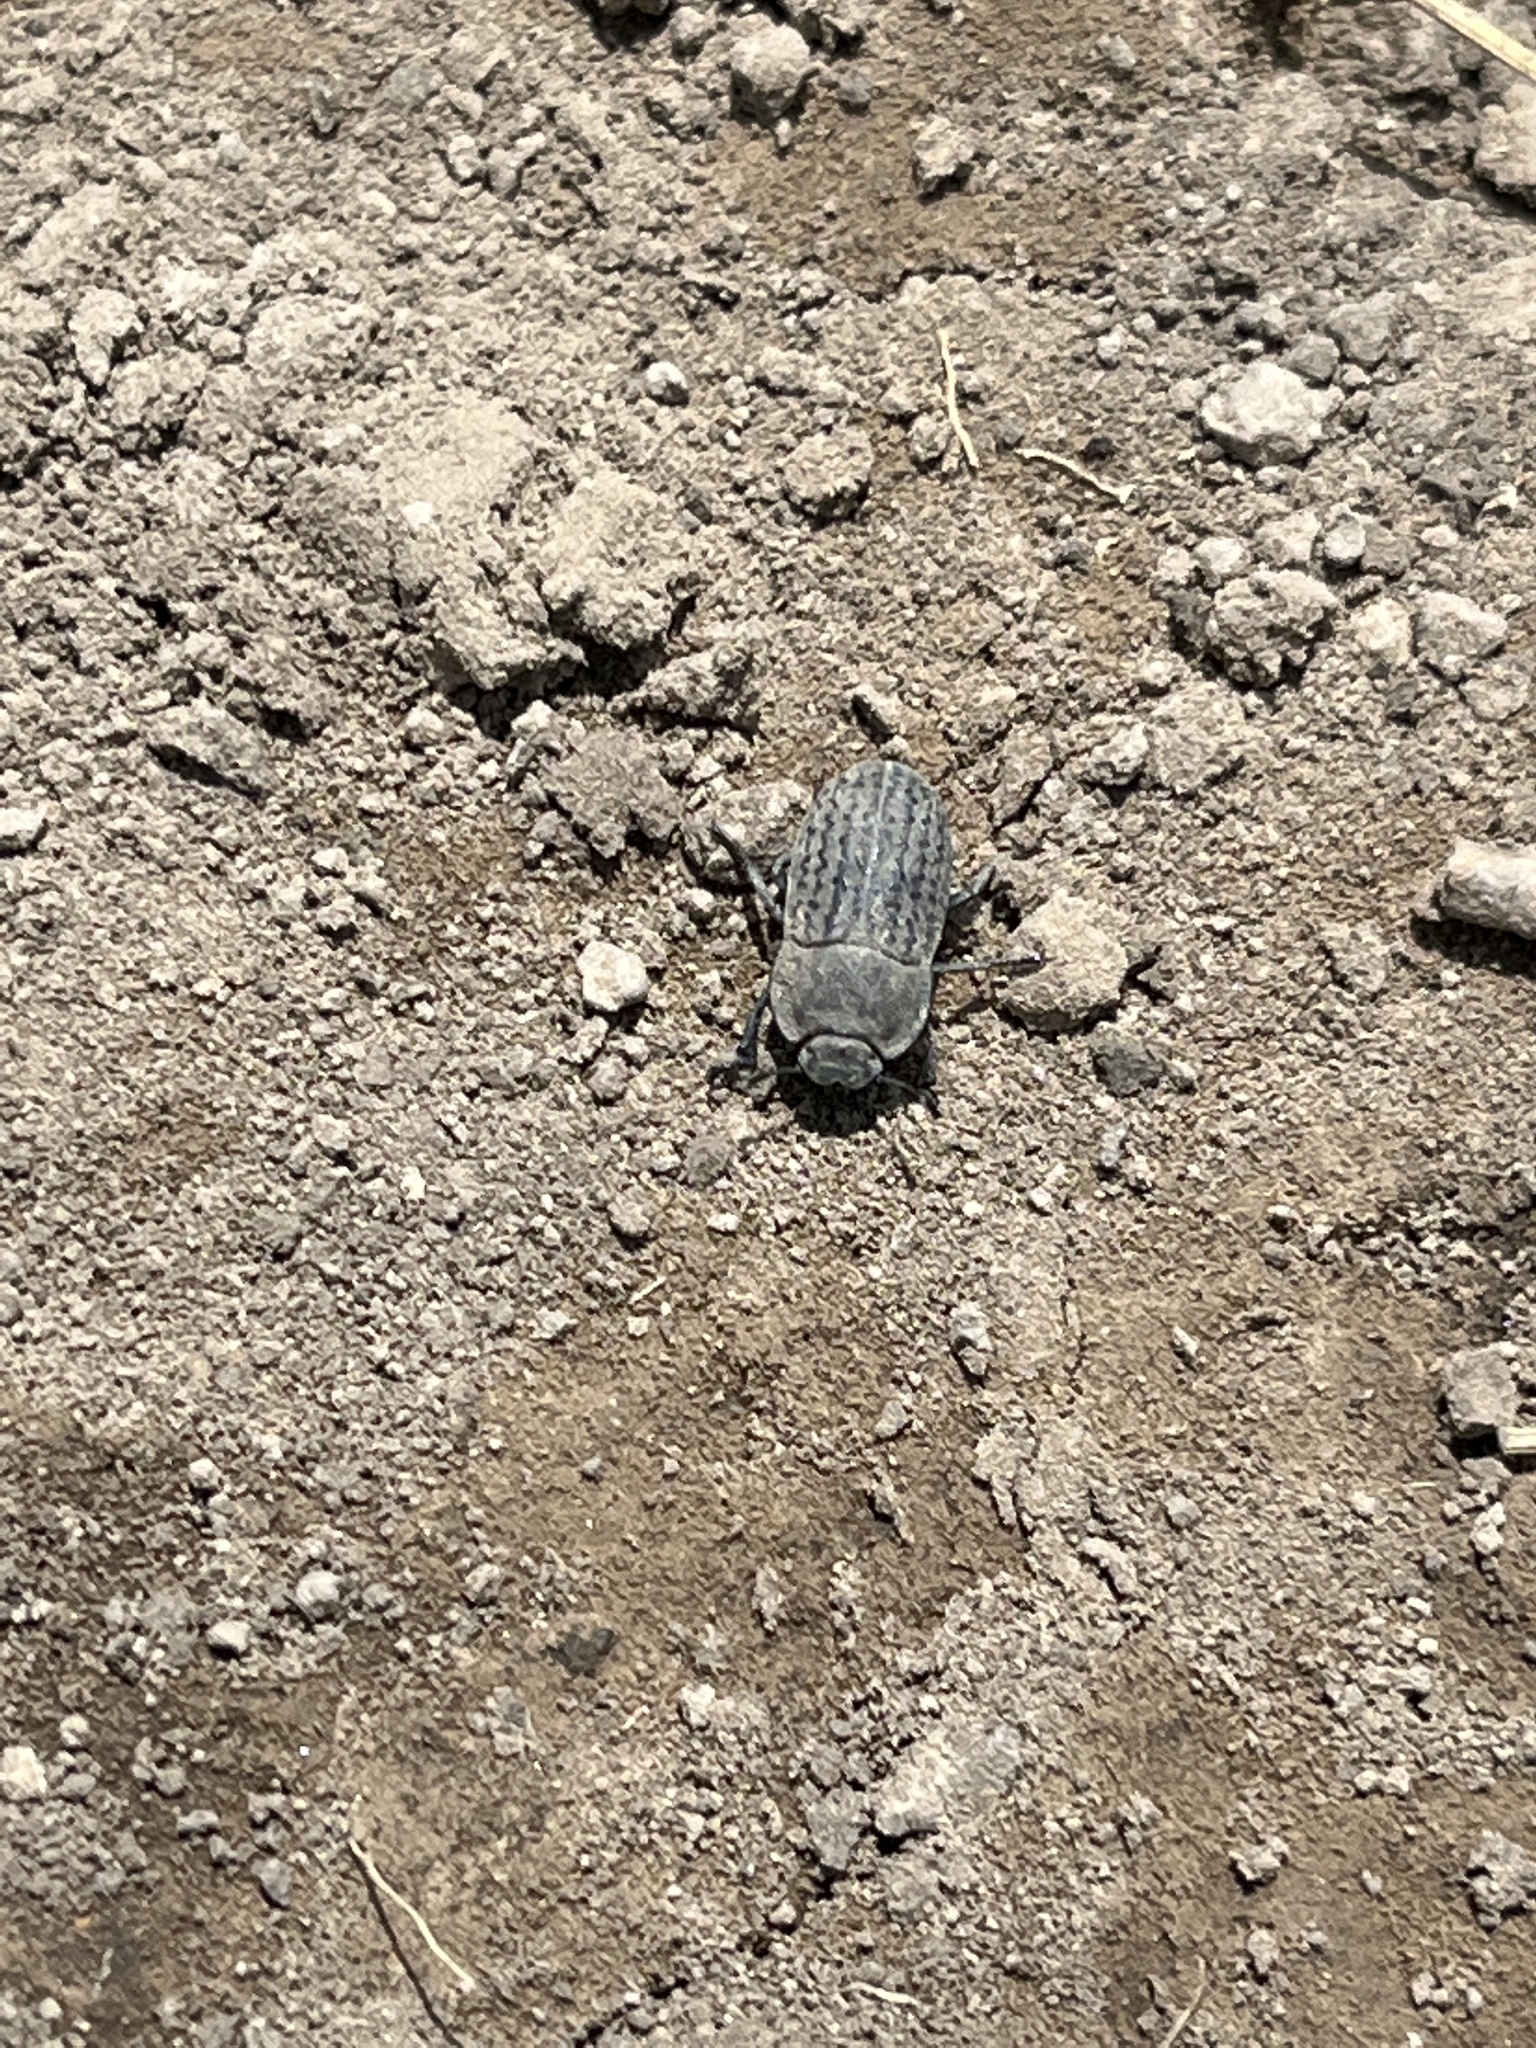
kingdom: Animalia
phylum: Arthropoda
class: Insecta
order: Coleoptera
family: Tenebrionidae
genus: Opatrum
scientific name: Opatrum sabulosum
